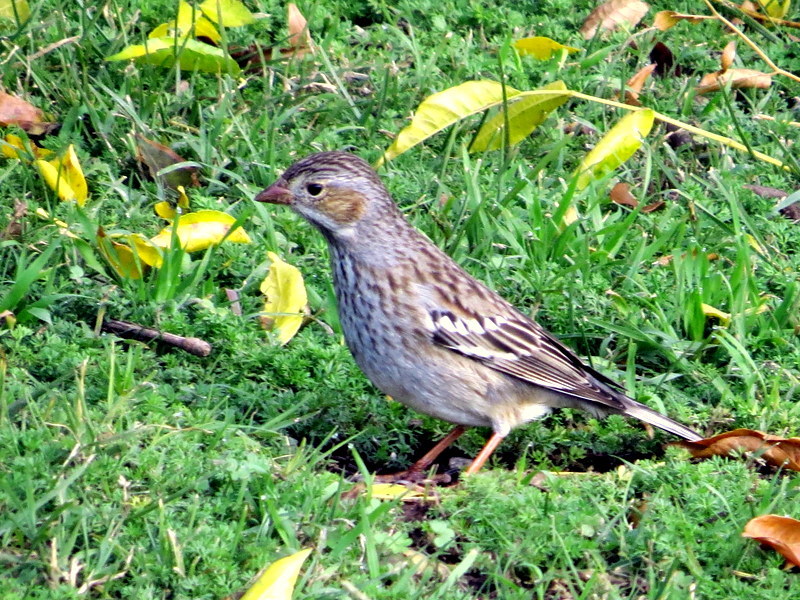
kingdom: Animalia
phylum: Chordata
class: Aves
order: Passeriformes
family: Thraupidae
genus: Rhopospina
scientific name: Rhopospina fruticeti
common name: Mourning sierra finch
